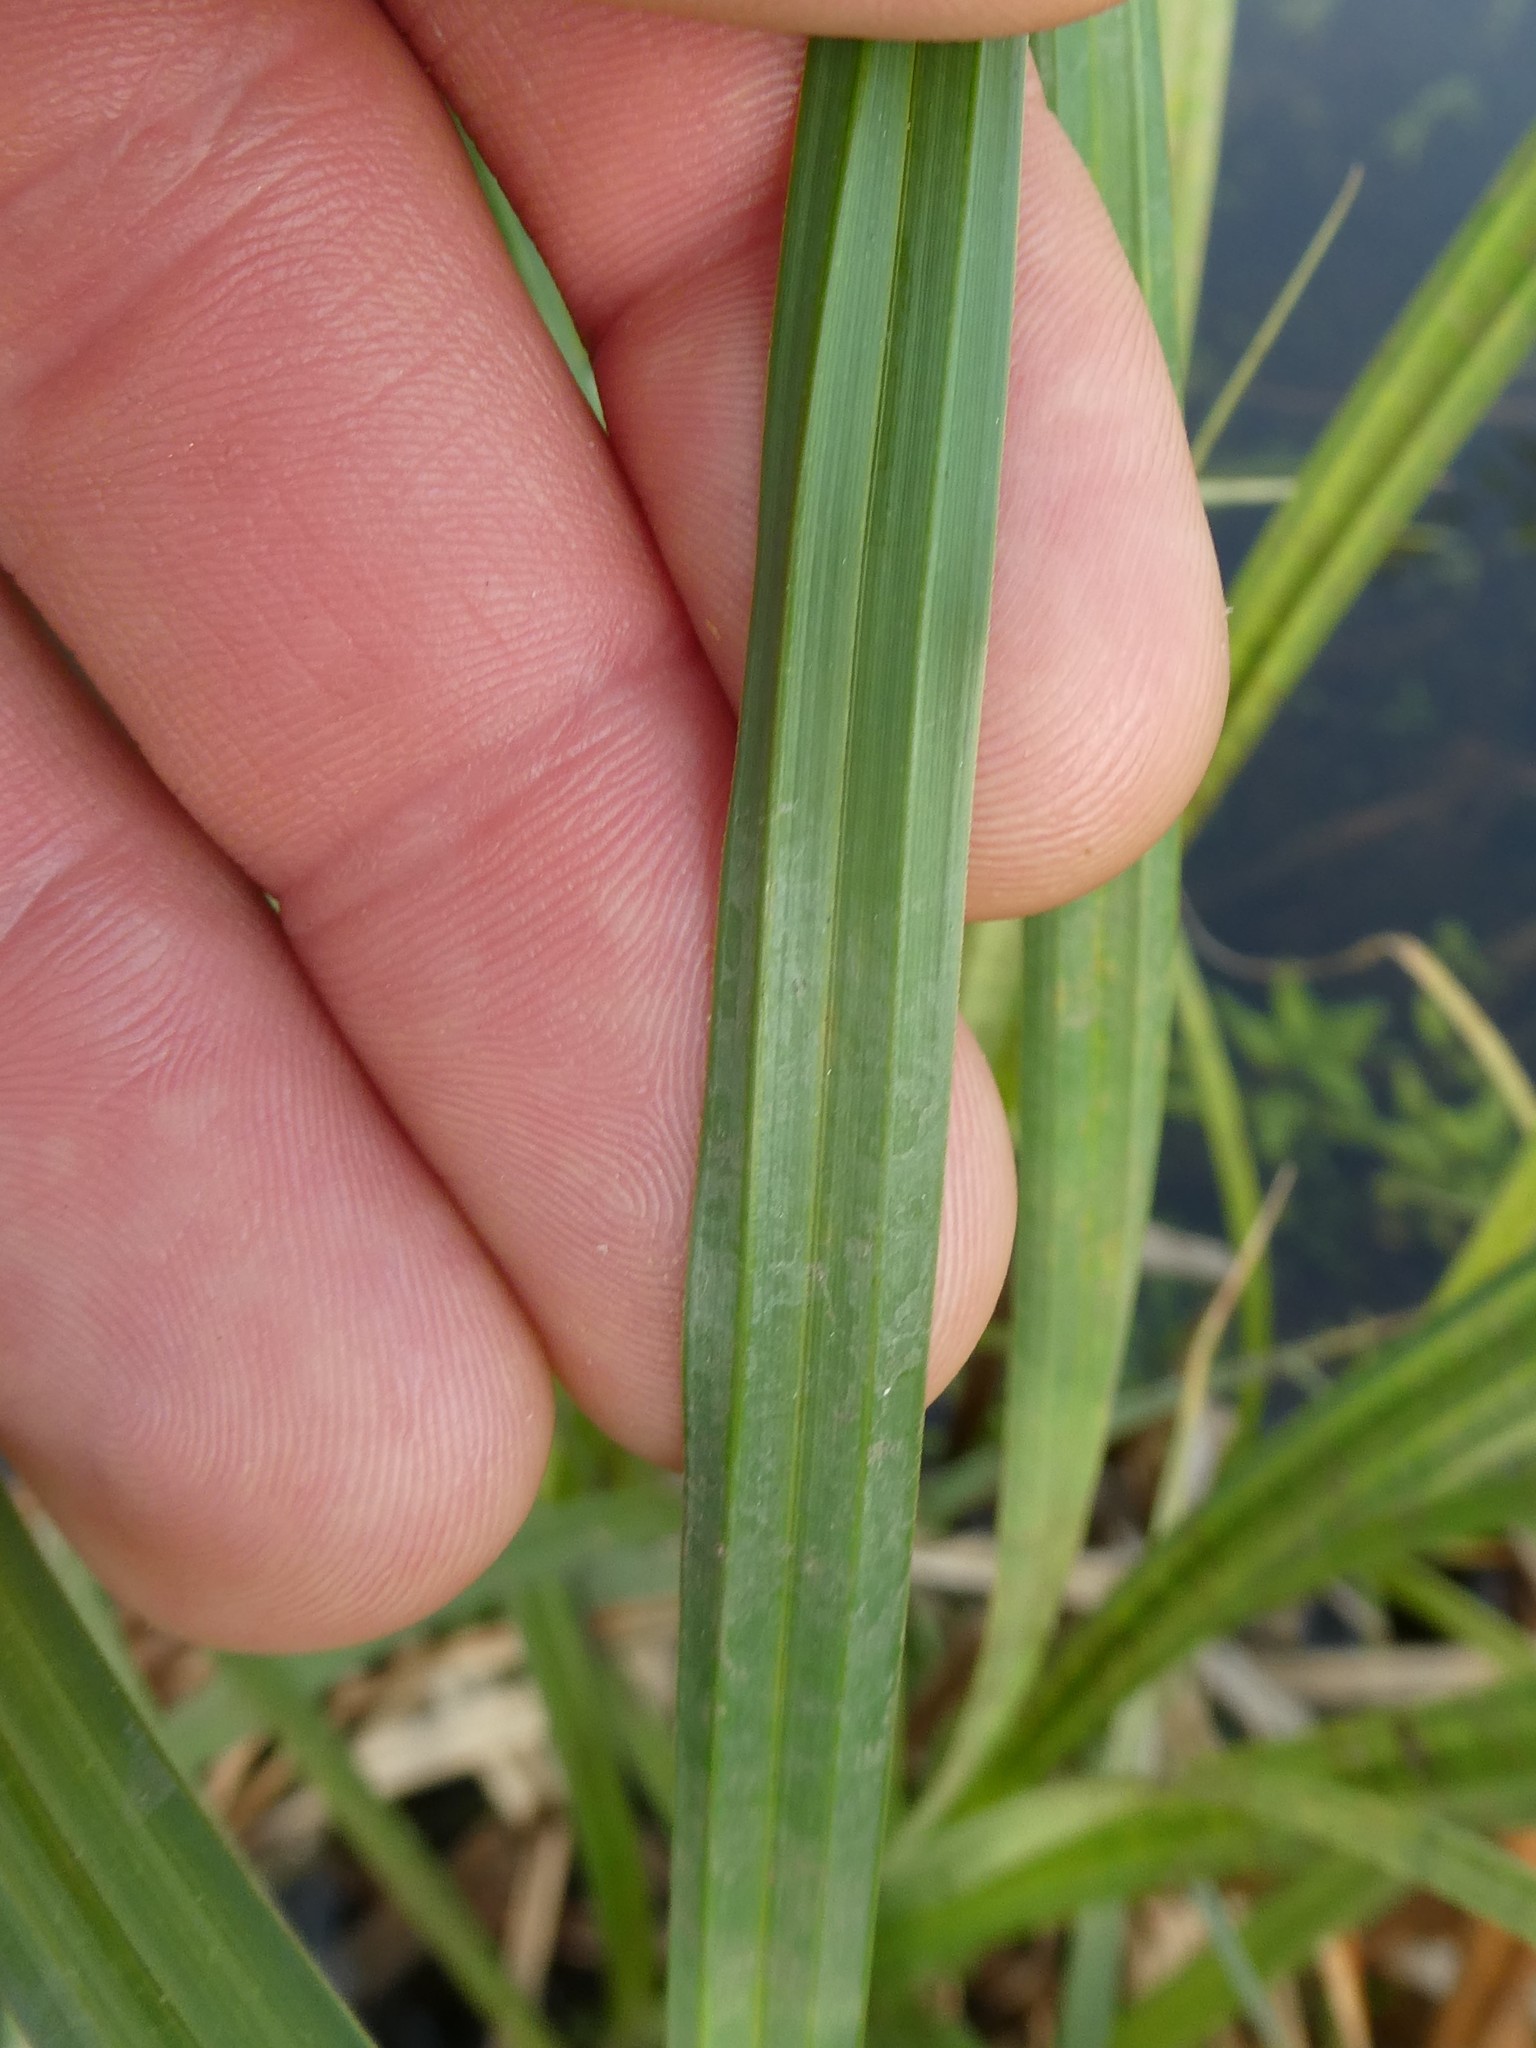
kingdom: Plantae
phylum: Tracheophyta
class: Liliopsida
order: Poales
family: Cyperaceae
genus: Carex
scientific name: Carex lacustris
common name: Common lake sedge
